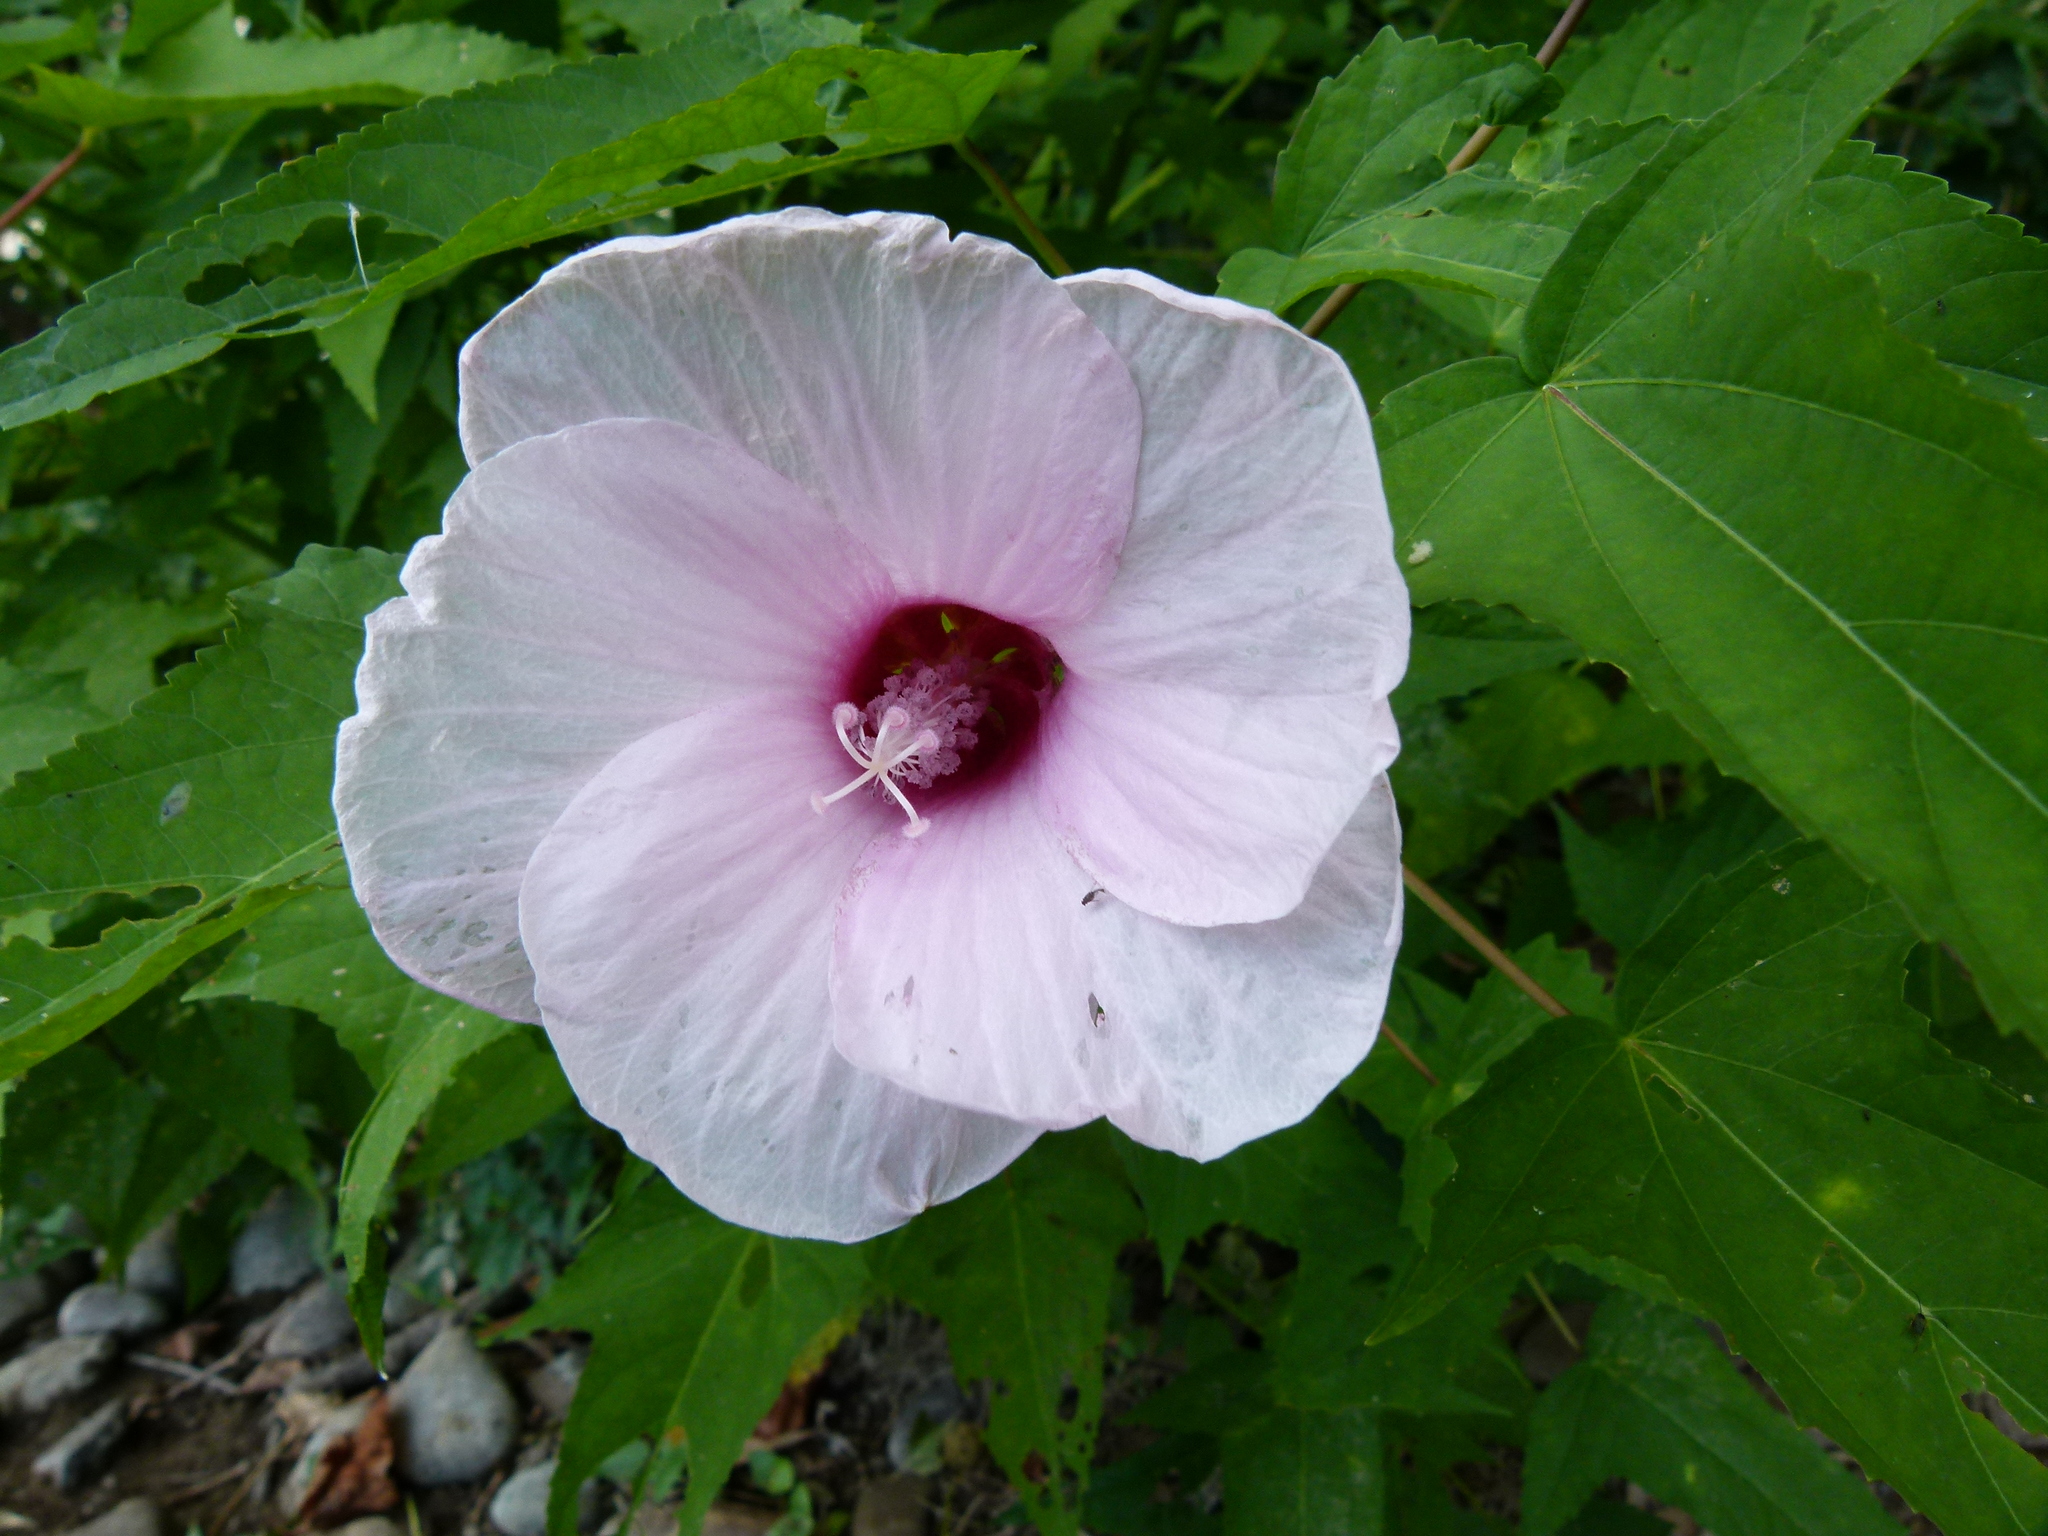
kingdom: Plantae
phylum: Tracheophyta
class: Magnoliopsida
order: Malvales
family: Malvaceae
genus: Hibiscus
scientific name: Hibiscus laevis
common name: Scarlet rose-mallow
